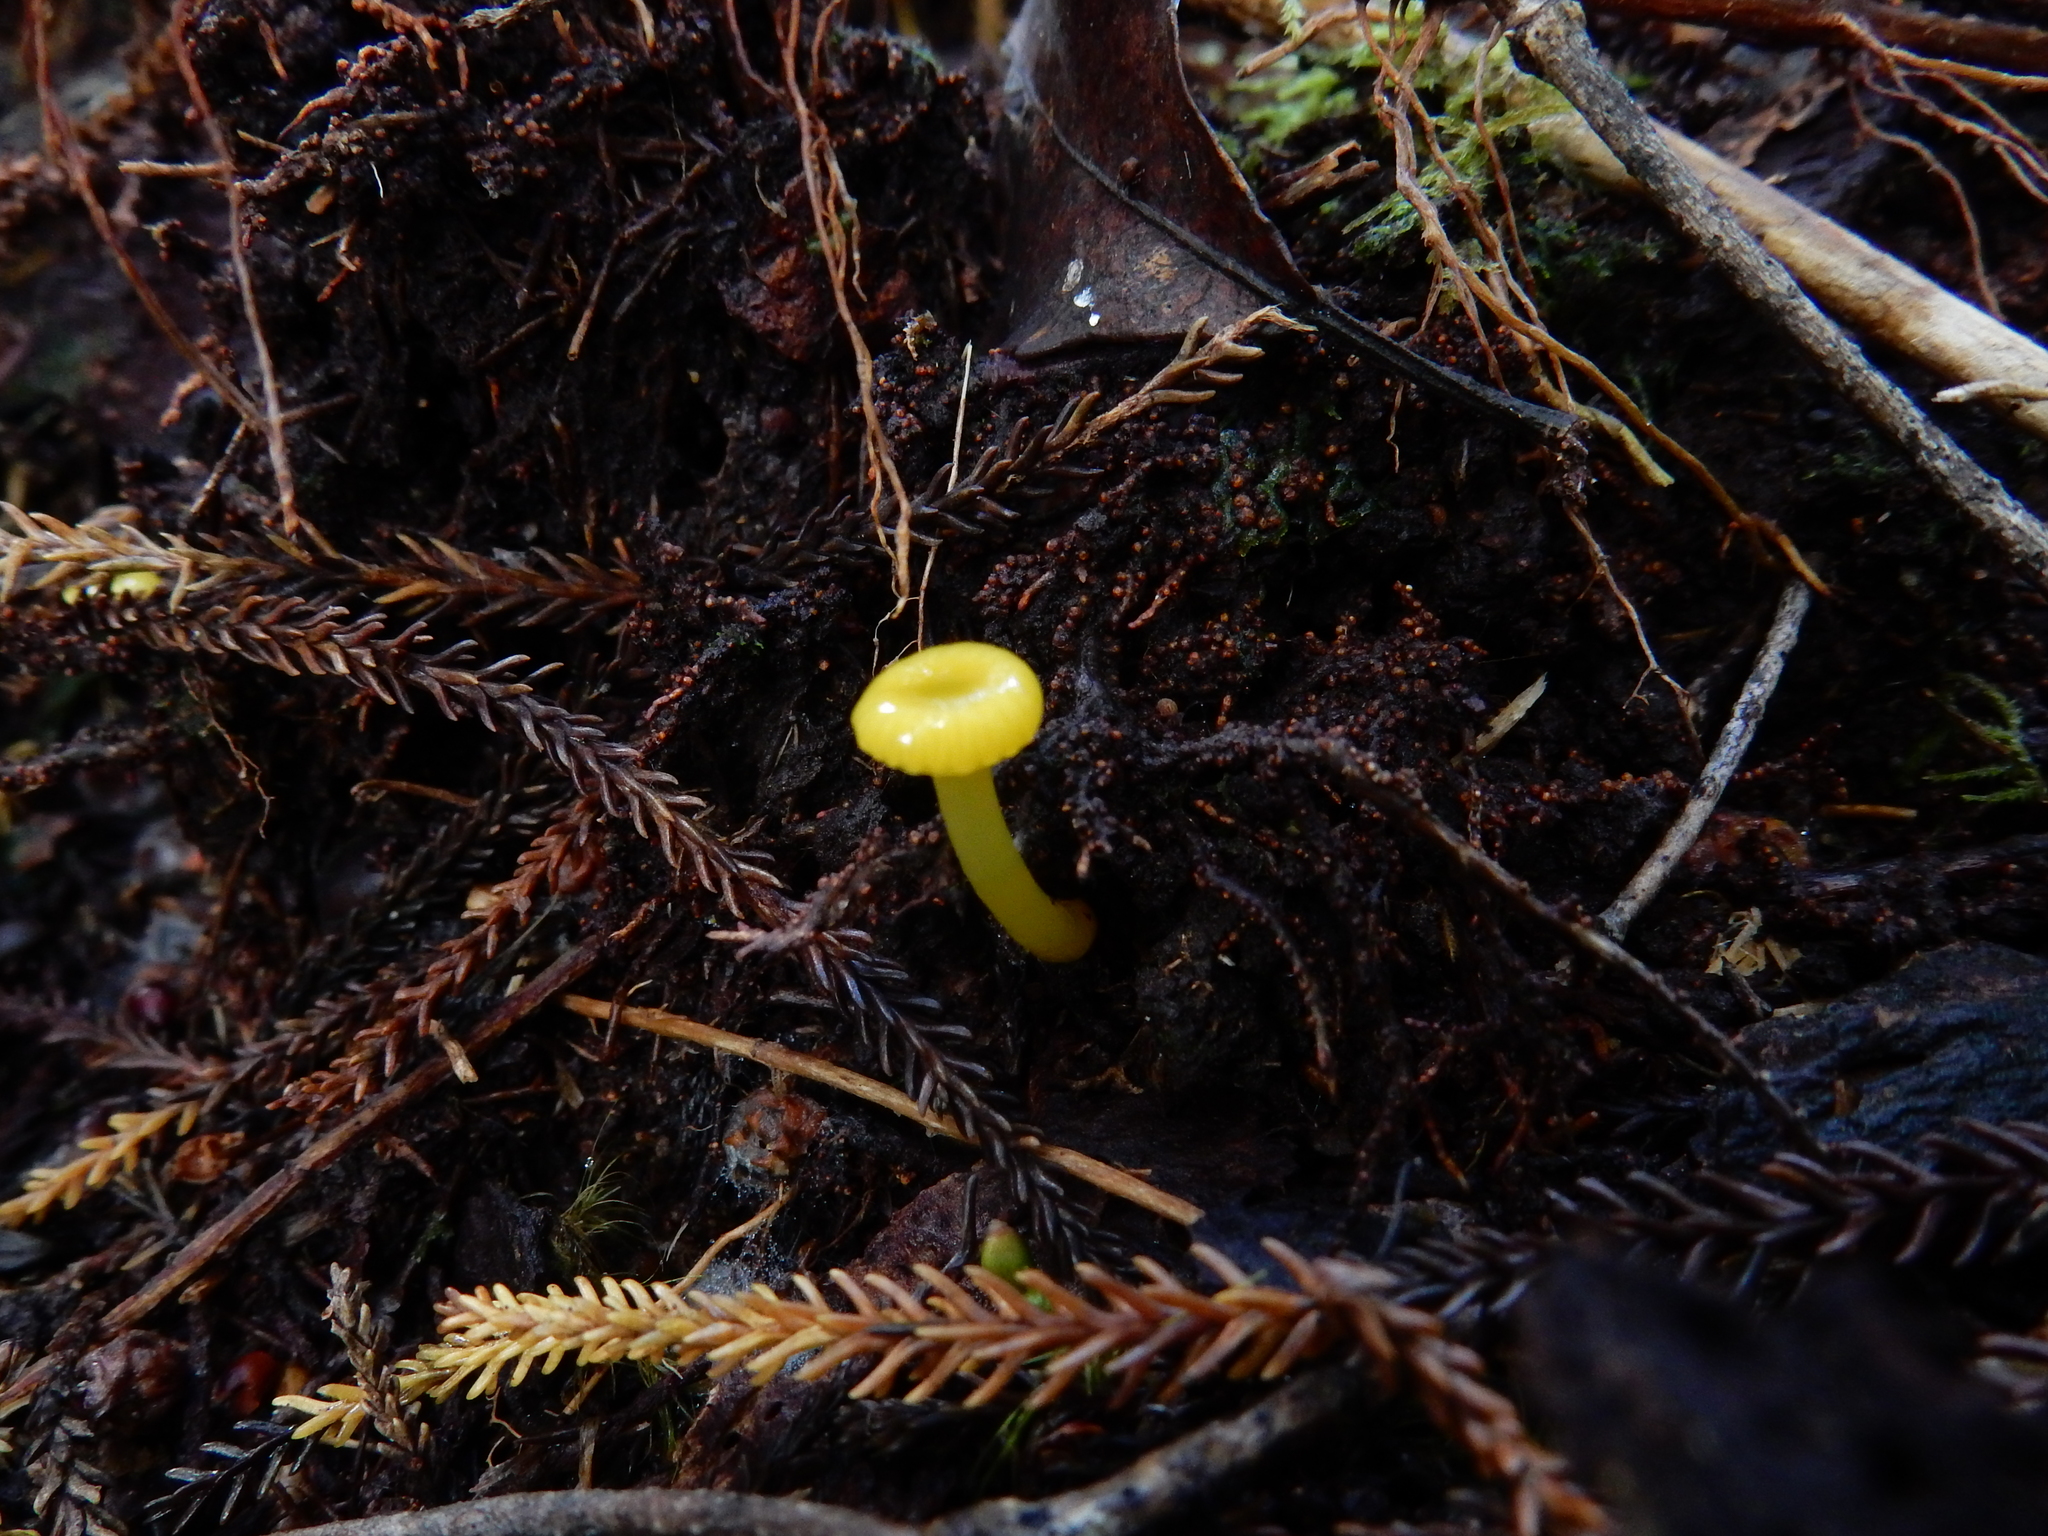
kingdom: Fungi
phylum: Basidiomycota
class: Agaricomycetes
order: Agaricales
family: Hygrophoraceae
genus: Gloioxanthomyces
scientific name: Gloioxanthomyces
